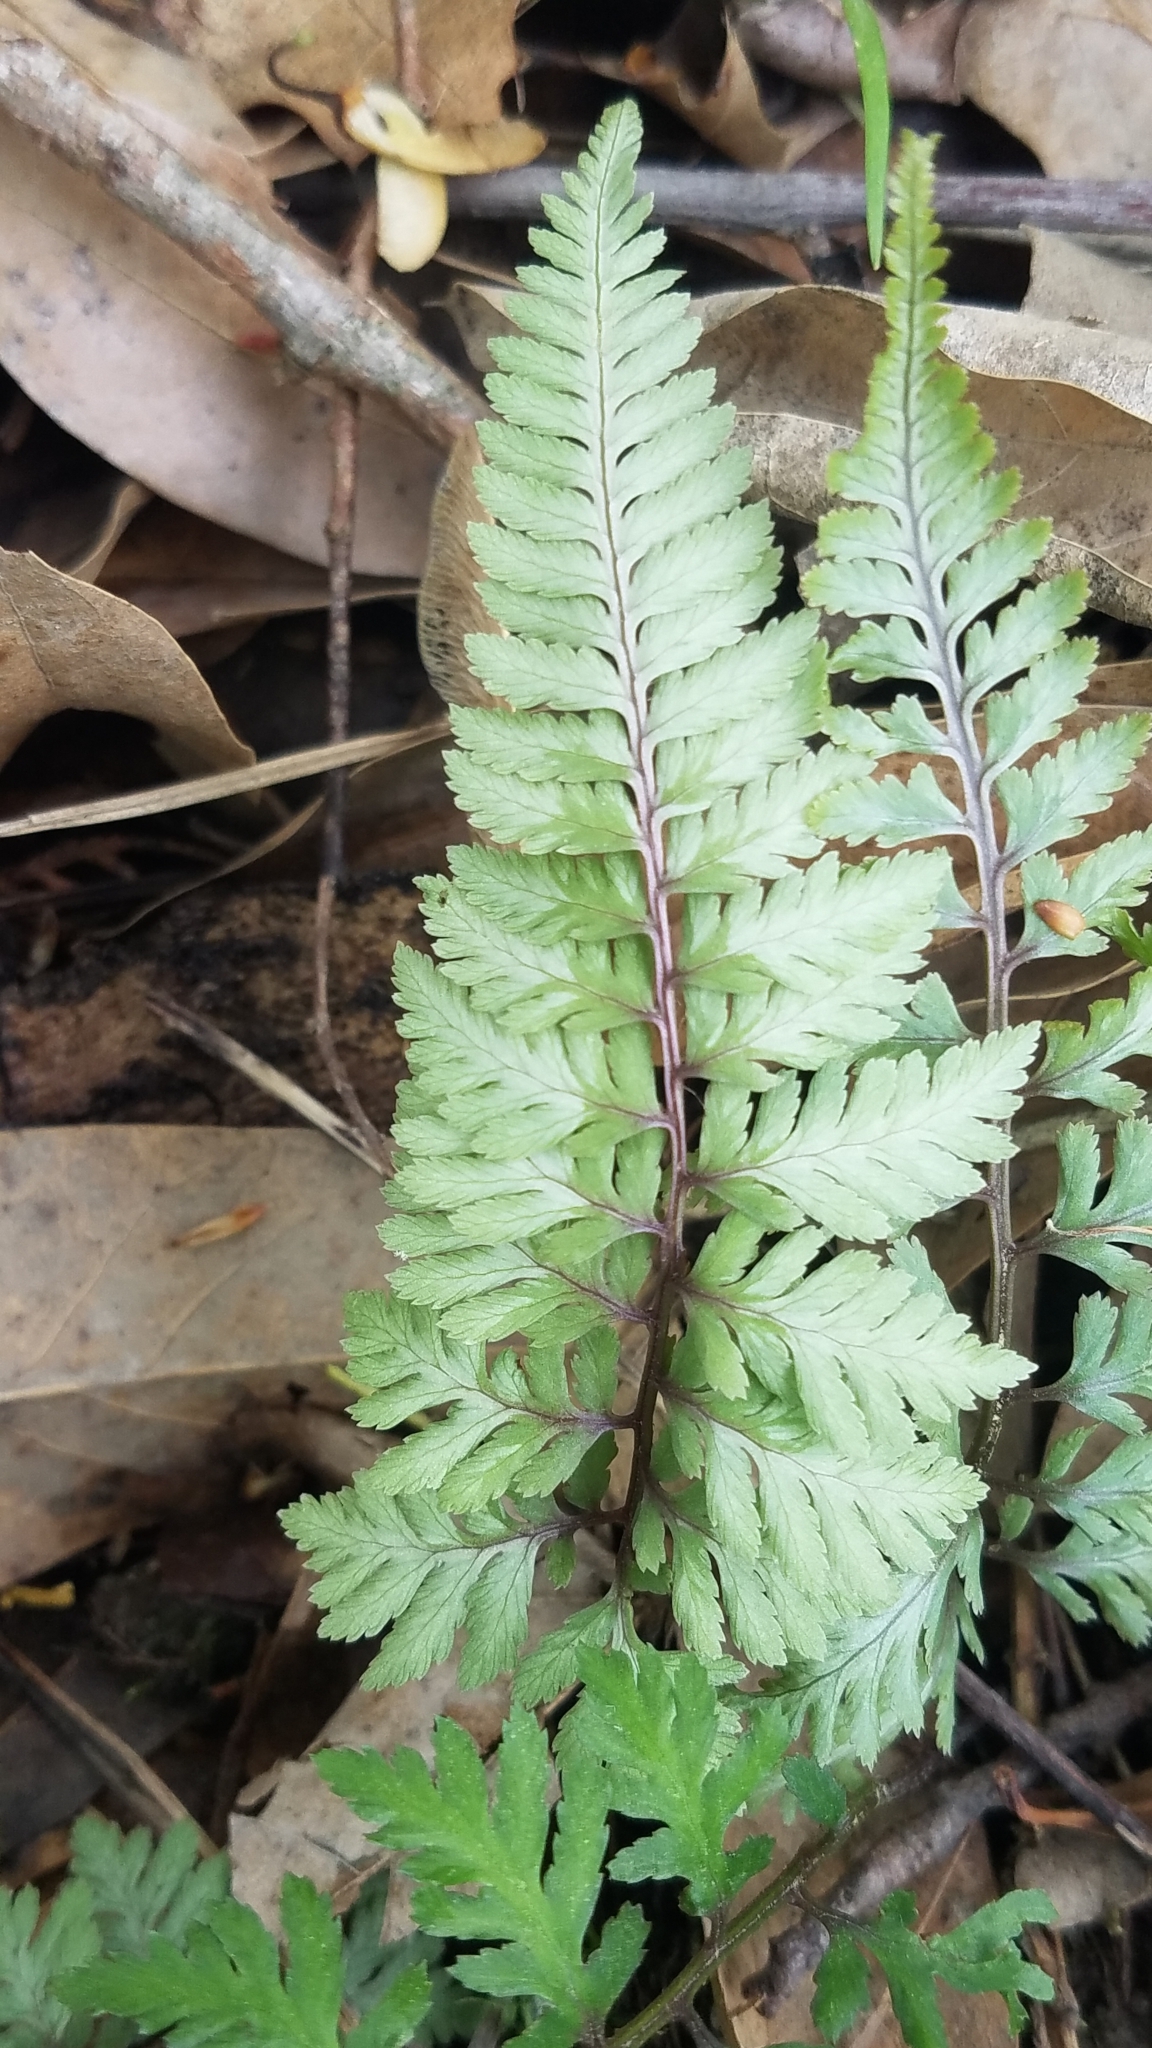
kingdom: Plantae
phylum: Tracheophyta
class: Polypodiopsida
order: Polypodiales
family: Athyriaceae
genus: Anisocampium
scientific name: Anisocampium niponicum
